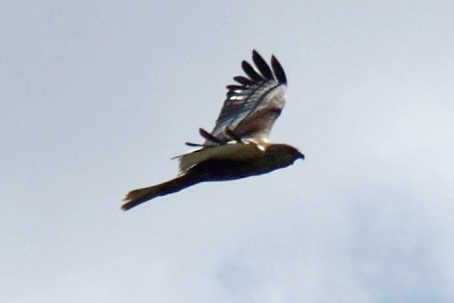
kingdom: Animalia
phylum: Chordata
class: Aves
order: Accipitriformes
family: Accipitridae
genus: Circus
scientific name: Circus aeruginosus
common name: Western marsh harrier
